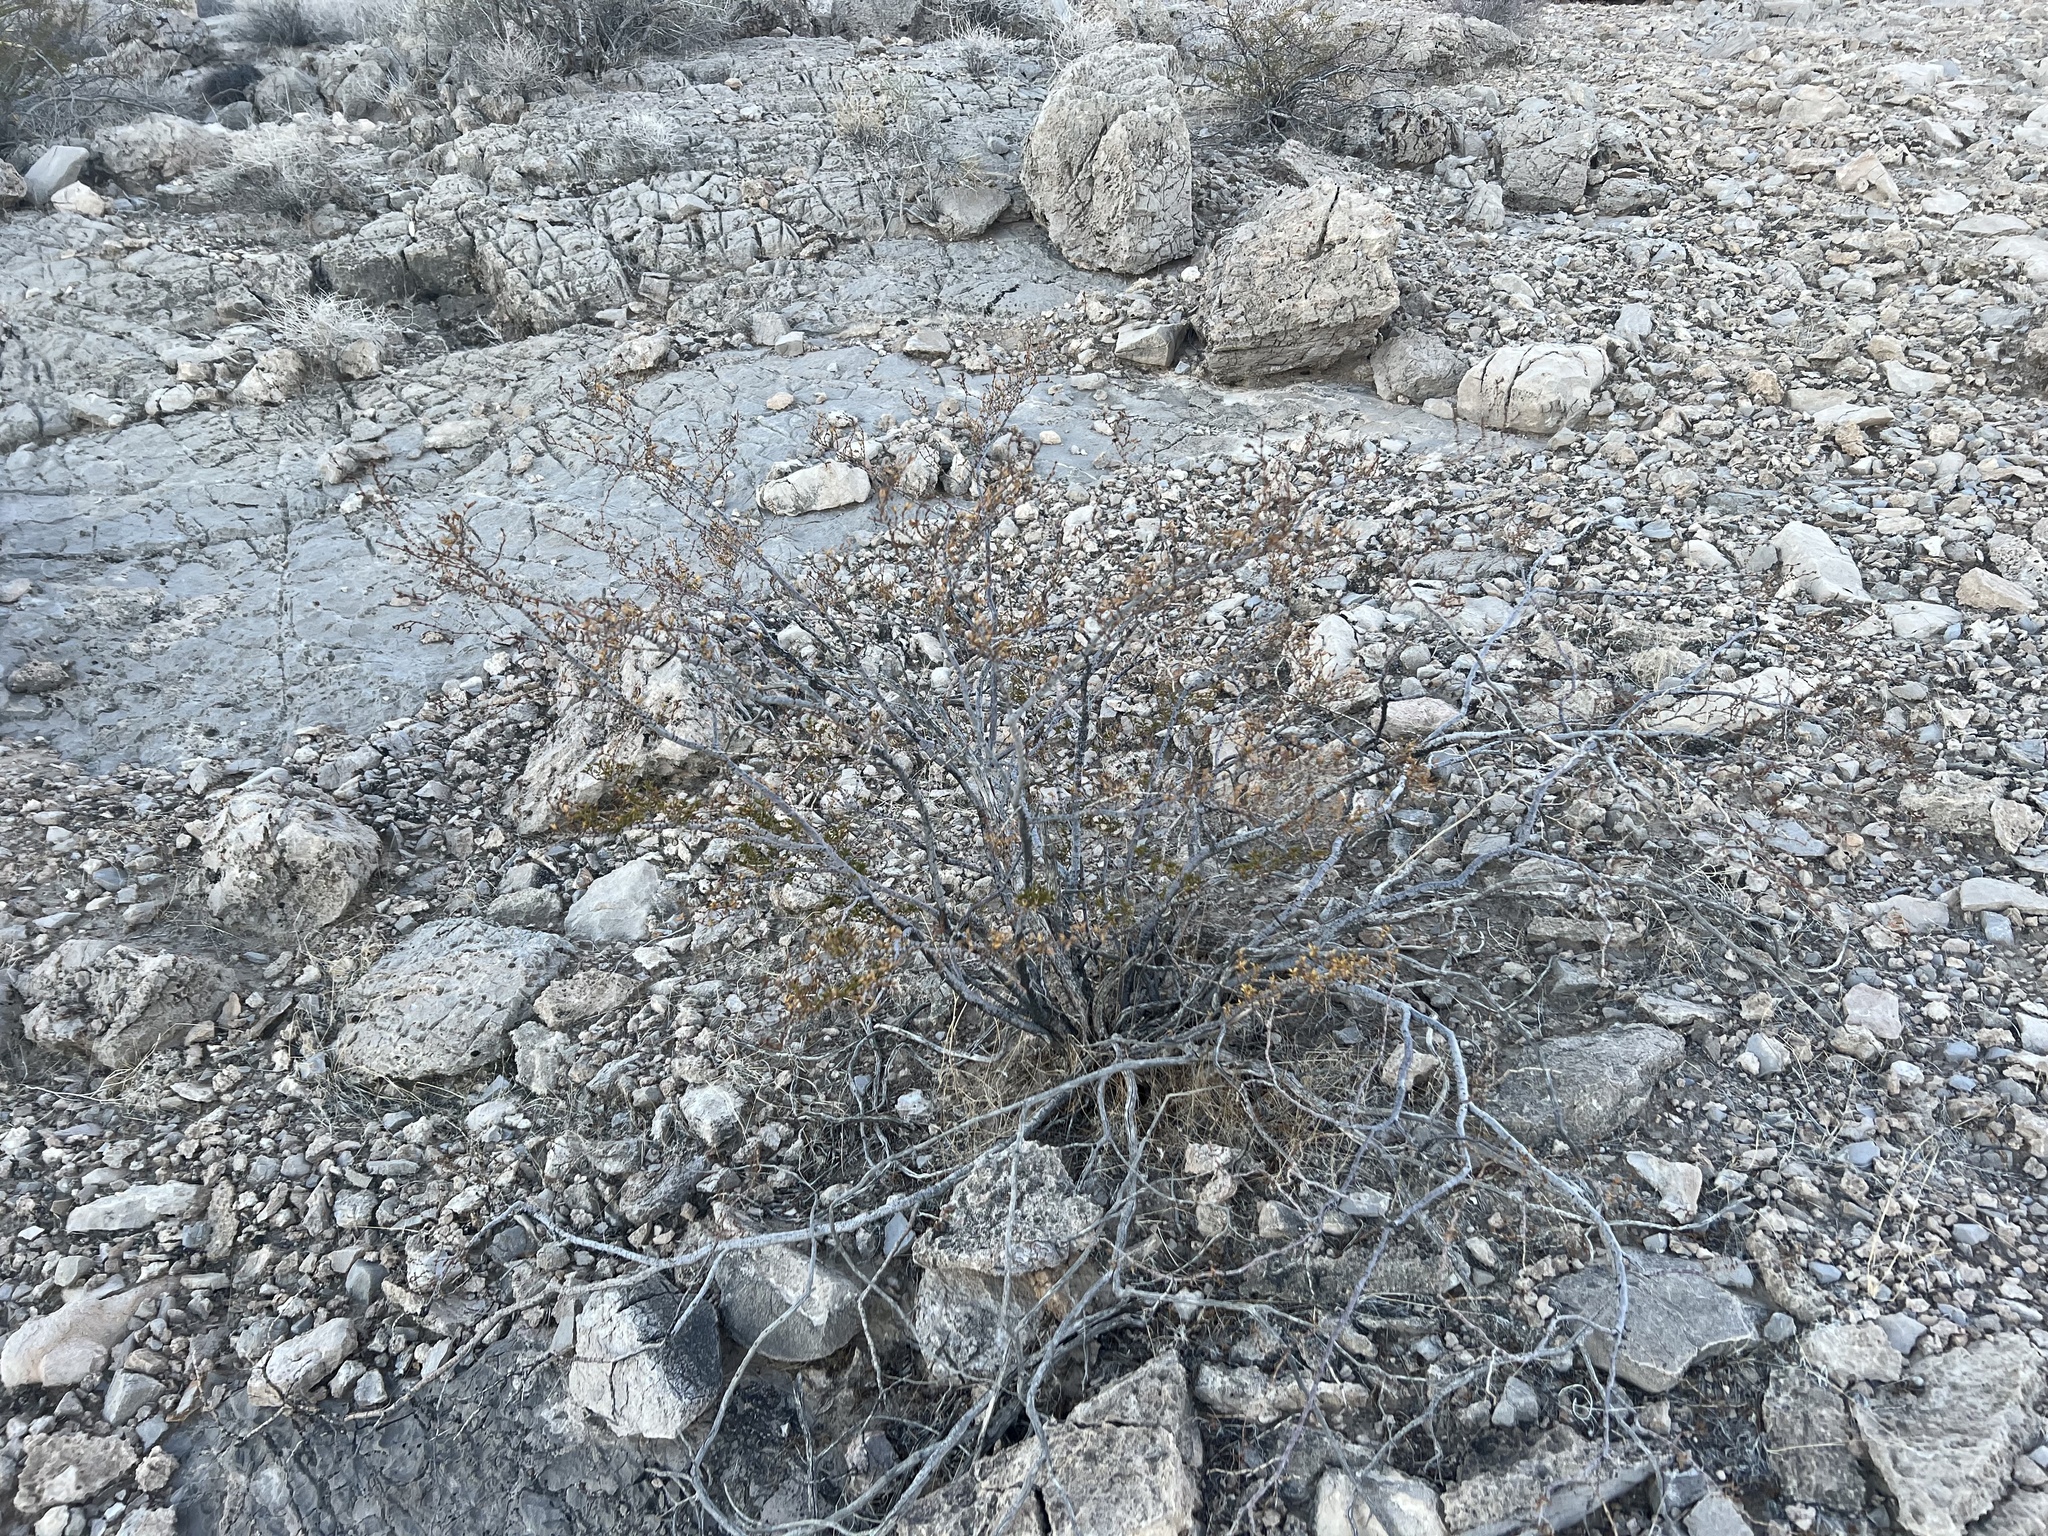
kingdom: Plantae
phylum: Tracheophyta
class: Magnoliopsida
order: Zygophyllales
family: Zygophyllaceae
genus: Larrea
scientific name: Larrea tridentata
